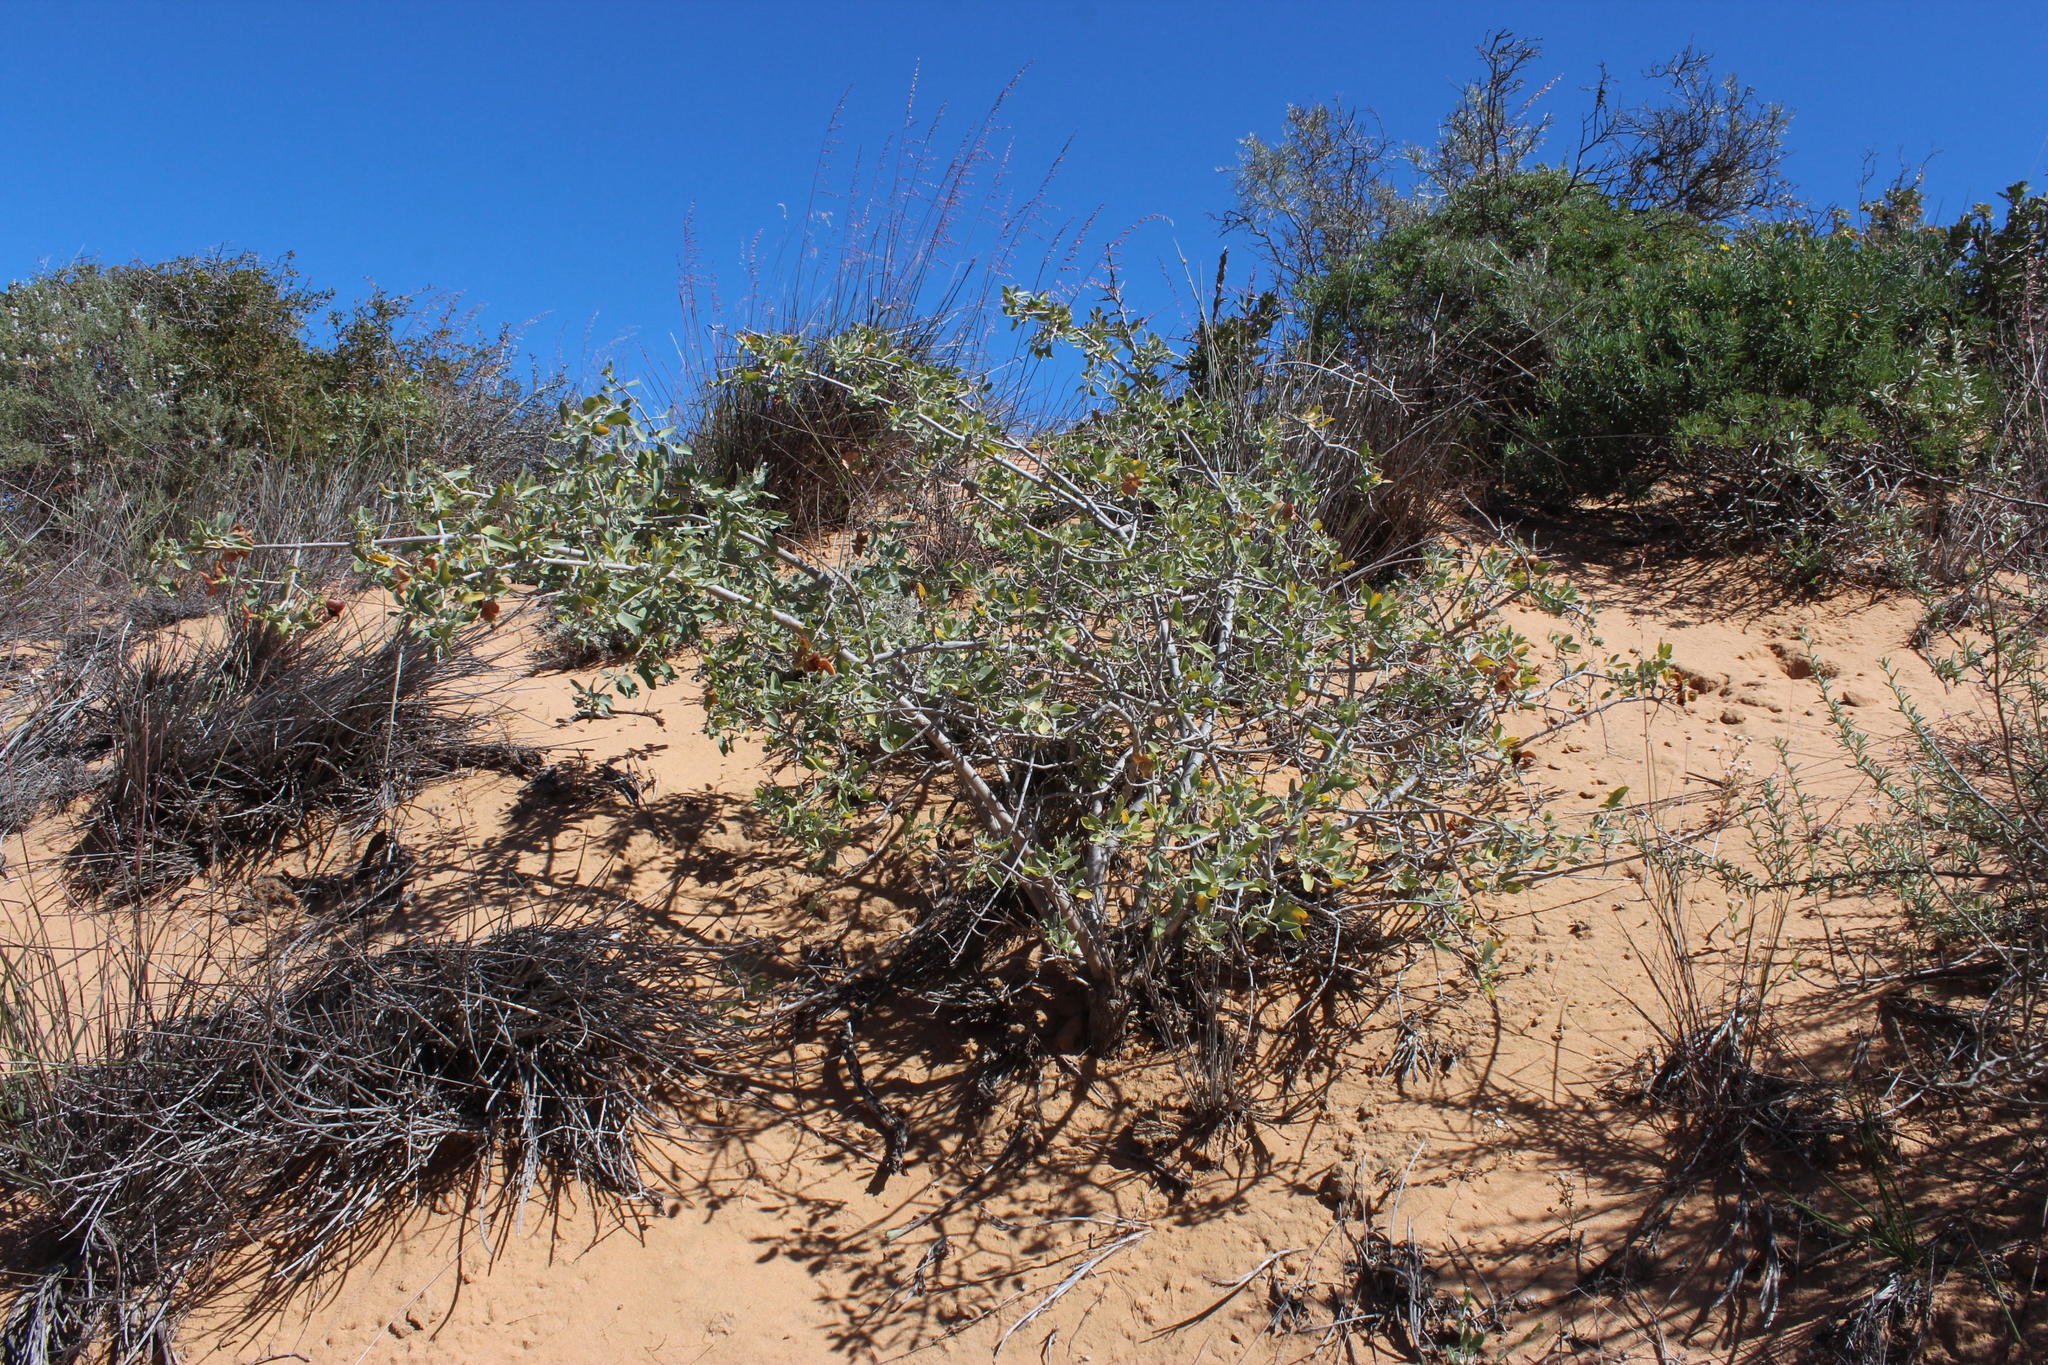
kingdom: Plantae
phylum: Tracheophyta
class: Magnoliopsida
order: Lamiales
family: Lamiaceae
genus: Salvia
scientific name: Salvia aurea
